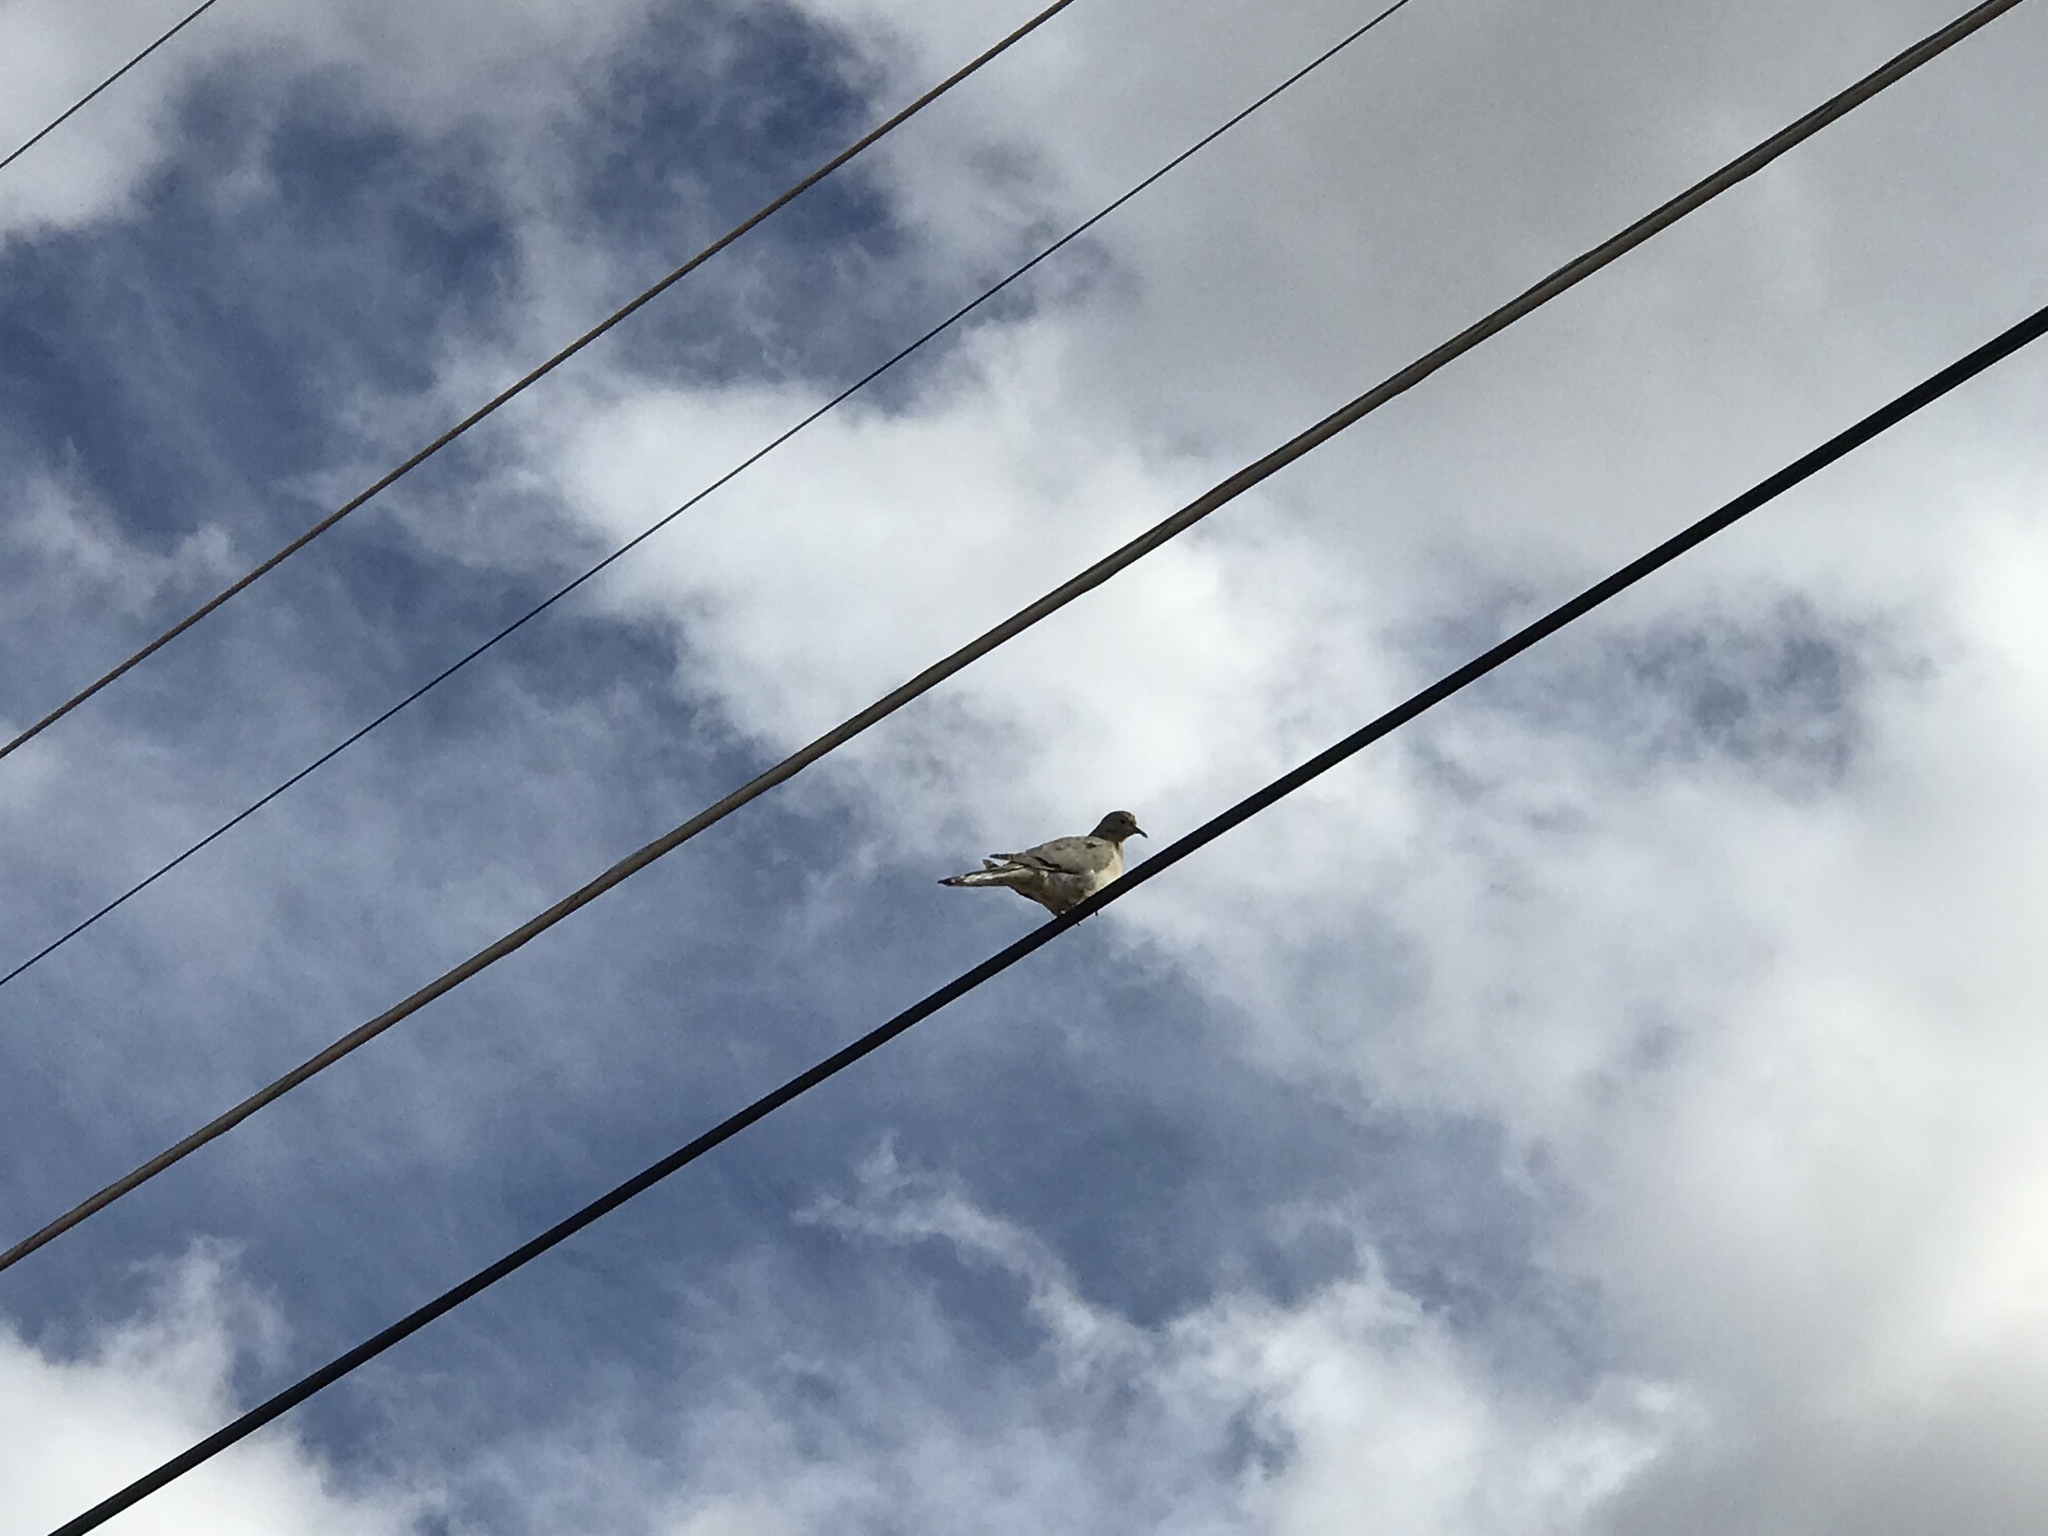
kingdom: Animalia
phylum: Chordata
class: Aves
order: Columbiformes
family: Columbidae
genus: Zenaida
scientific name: Zenaida macroura
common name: Mourning dove
